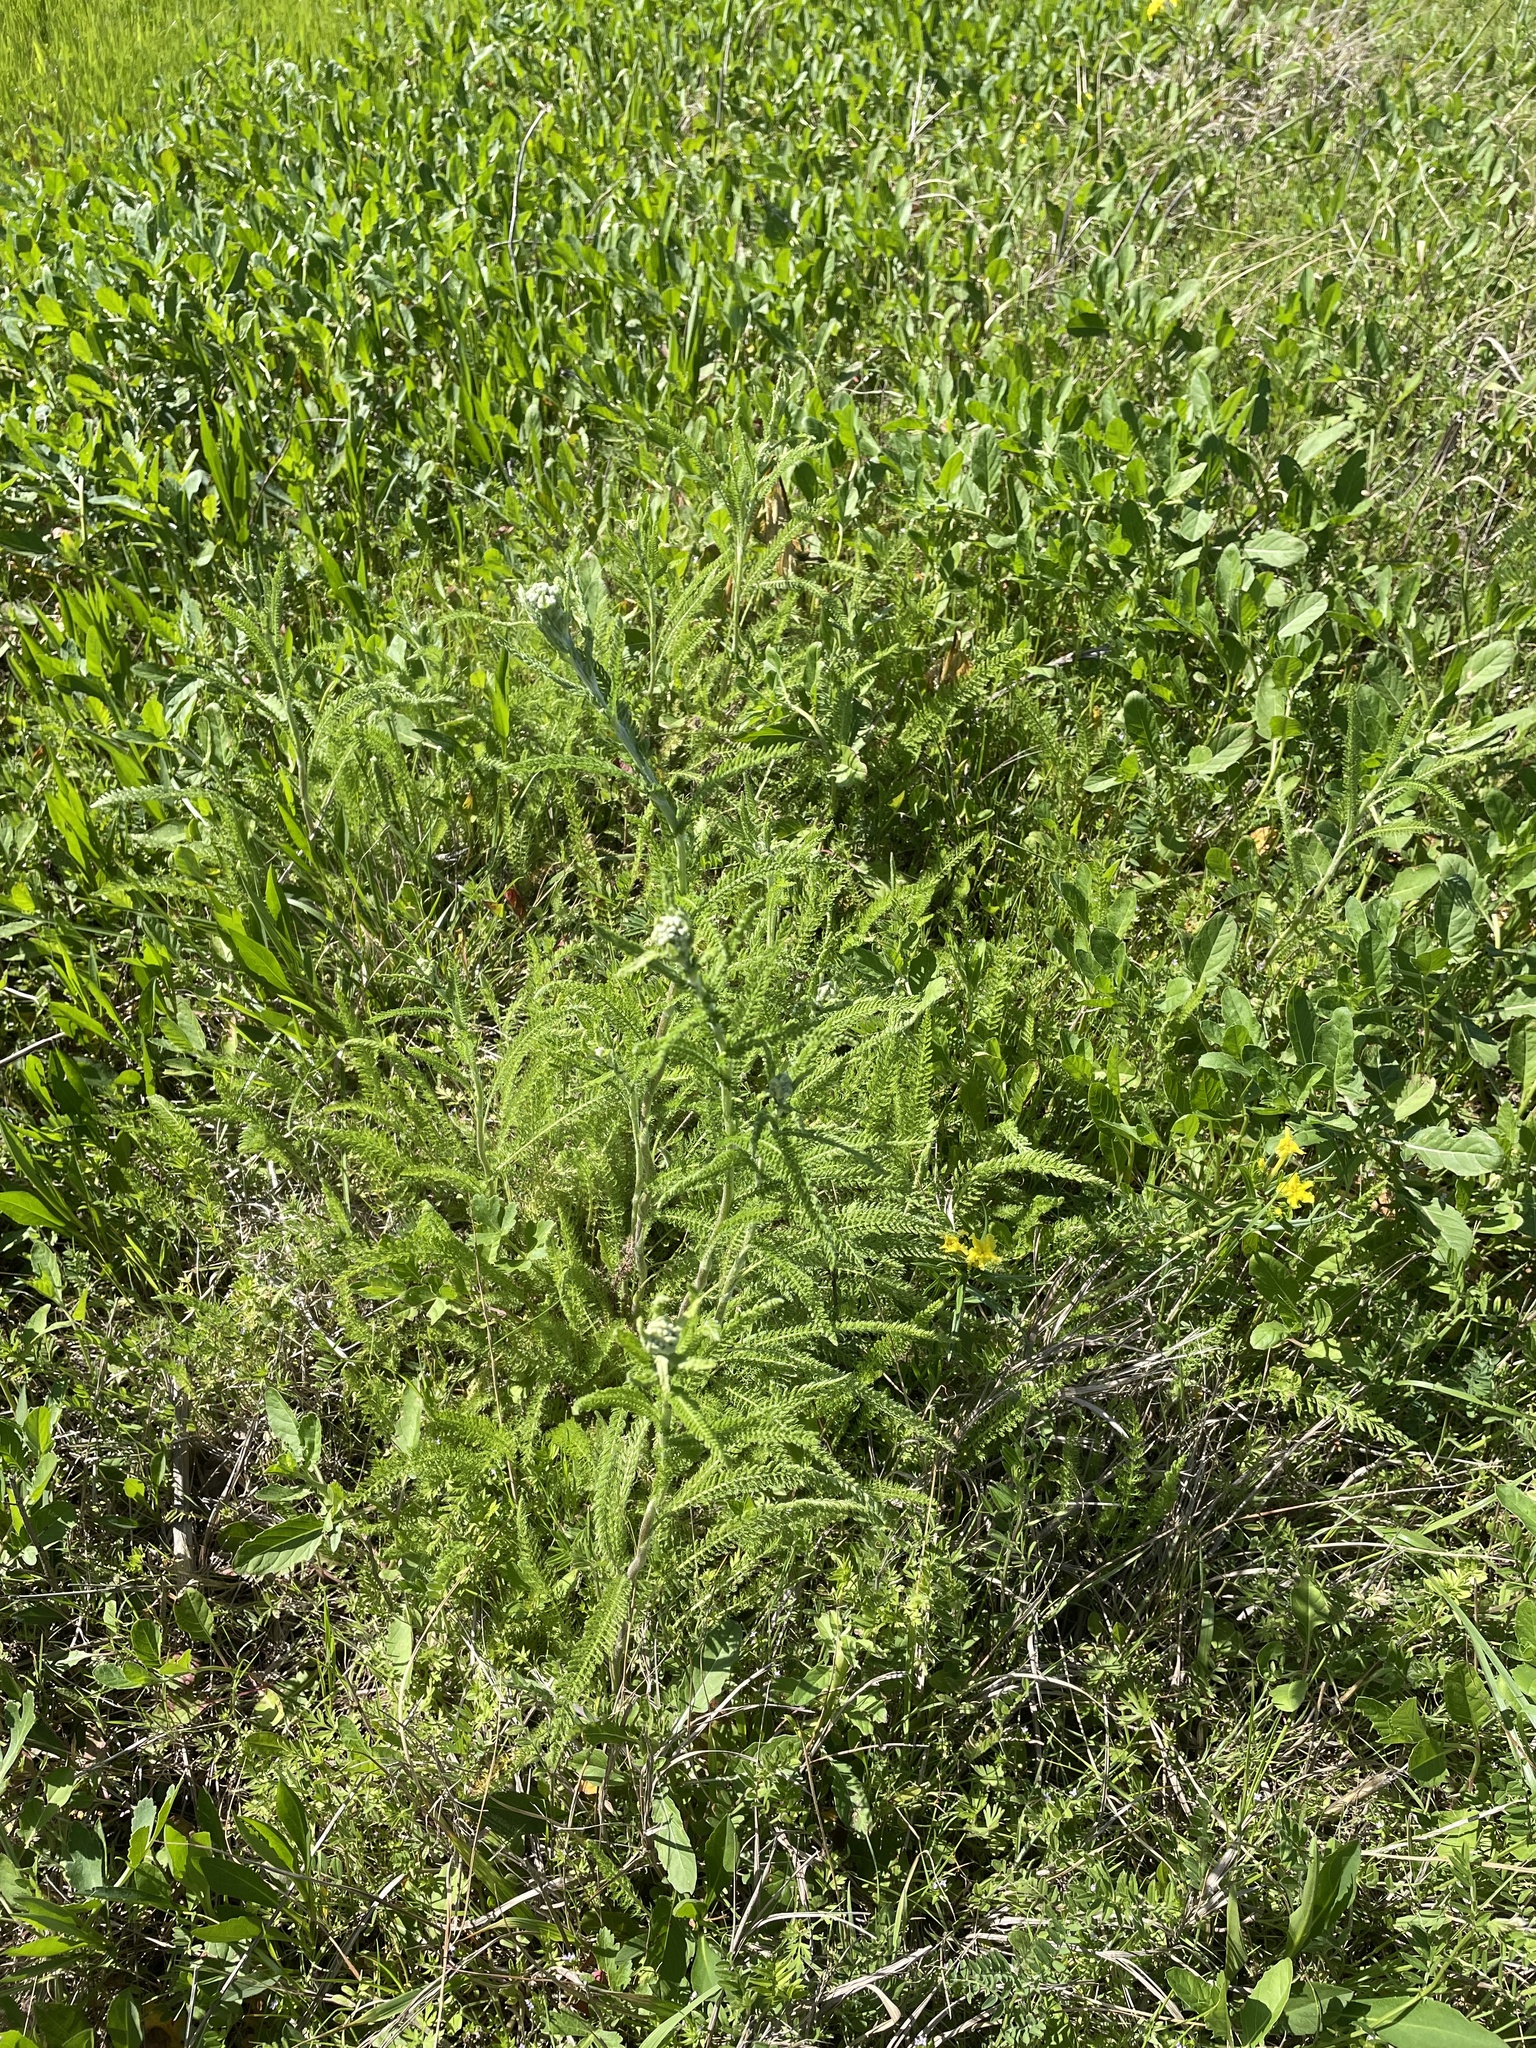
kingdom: Plantae
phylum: Tracheophyta
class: Magnoliopsida
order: Asterales
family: Asteraceae
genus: Achillea
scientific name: Achillea millefolium
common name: Yarrow
